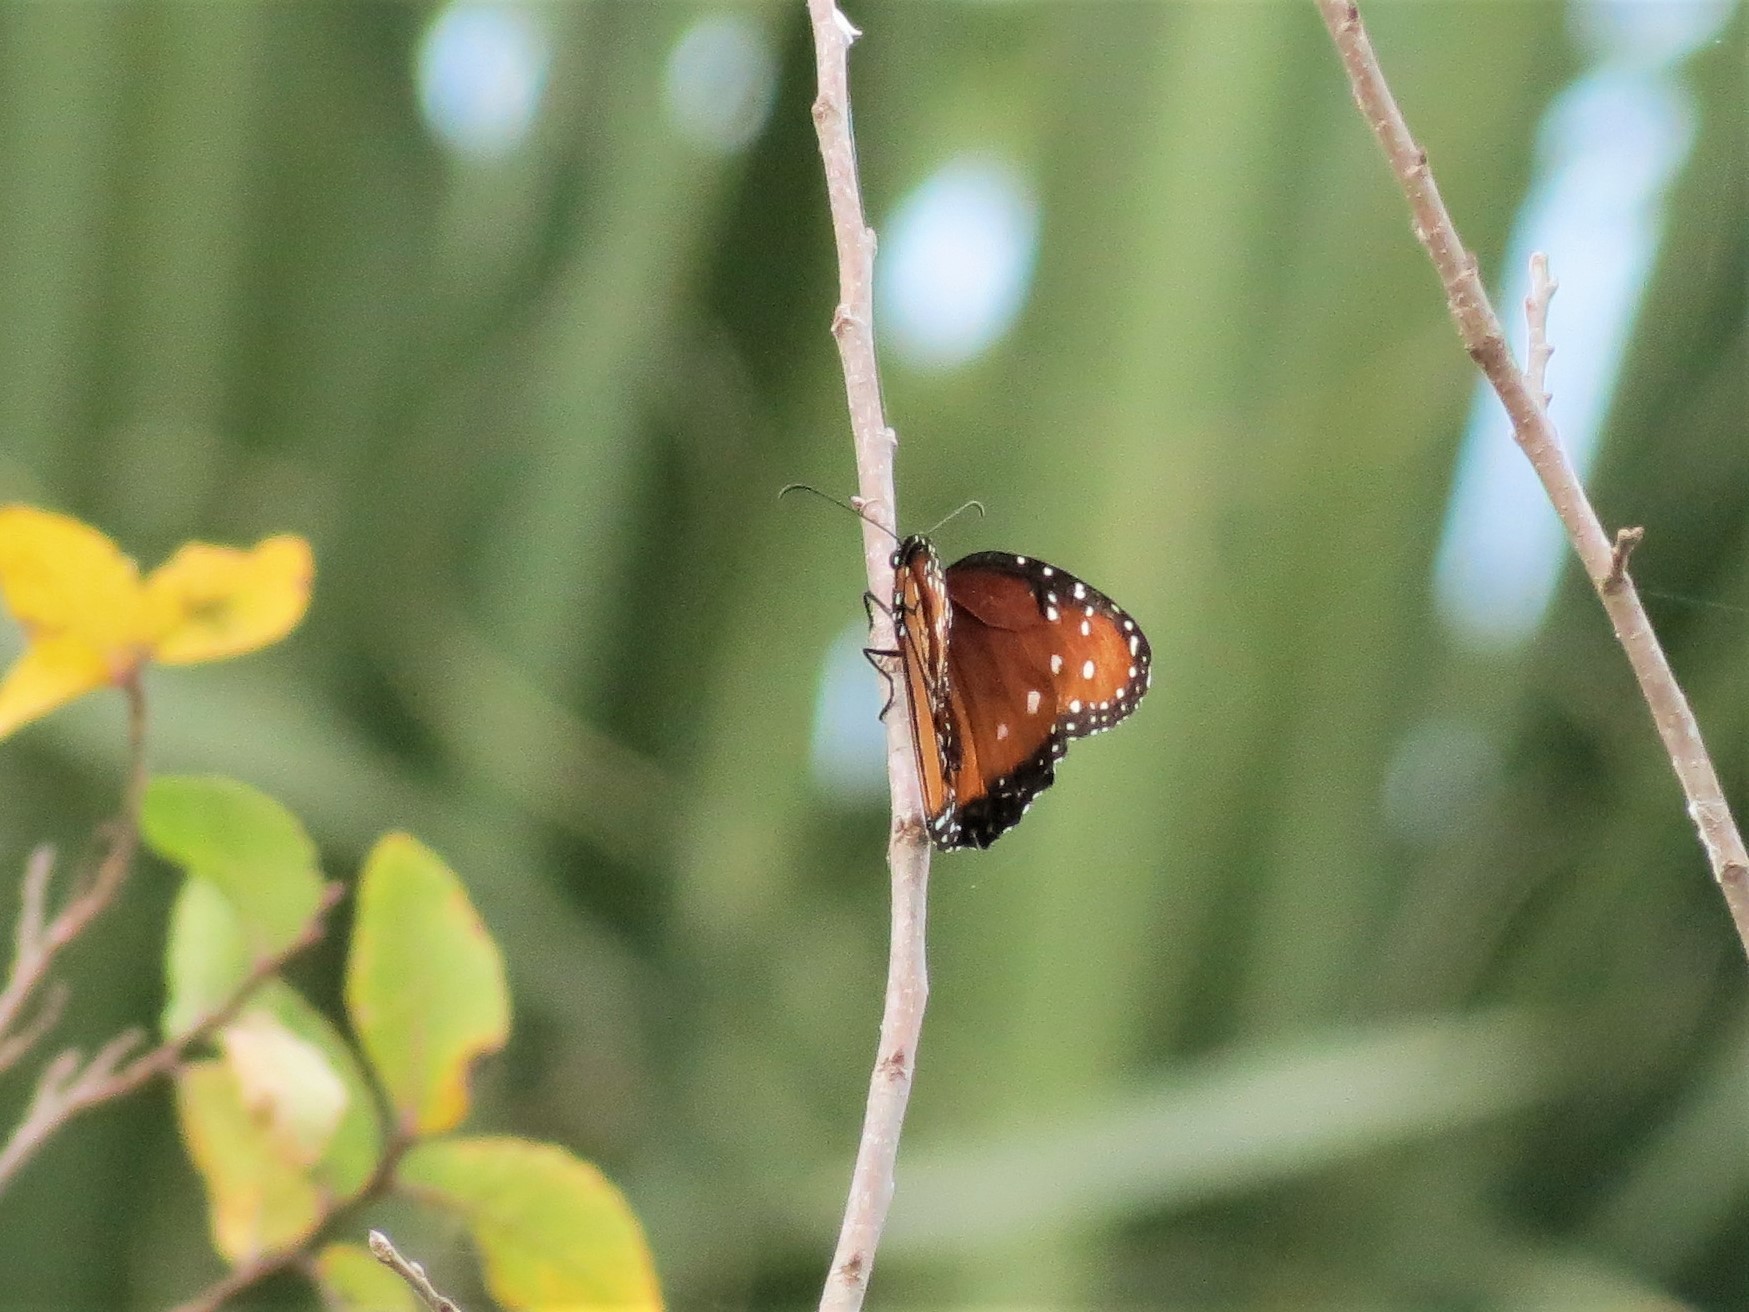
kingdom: Animalia
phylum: Arthropoda
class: Insecta
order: Lepidoptera
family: Nymphalidae
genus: Danaus
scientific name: Danaus gilippus
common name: Queen
